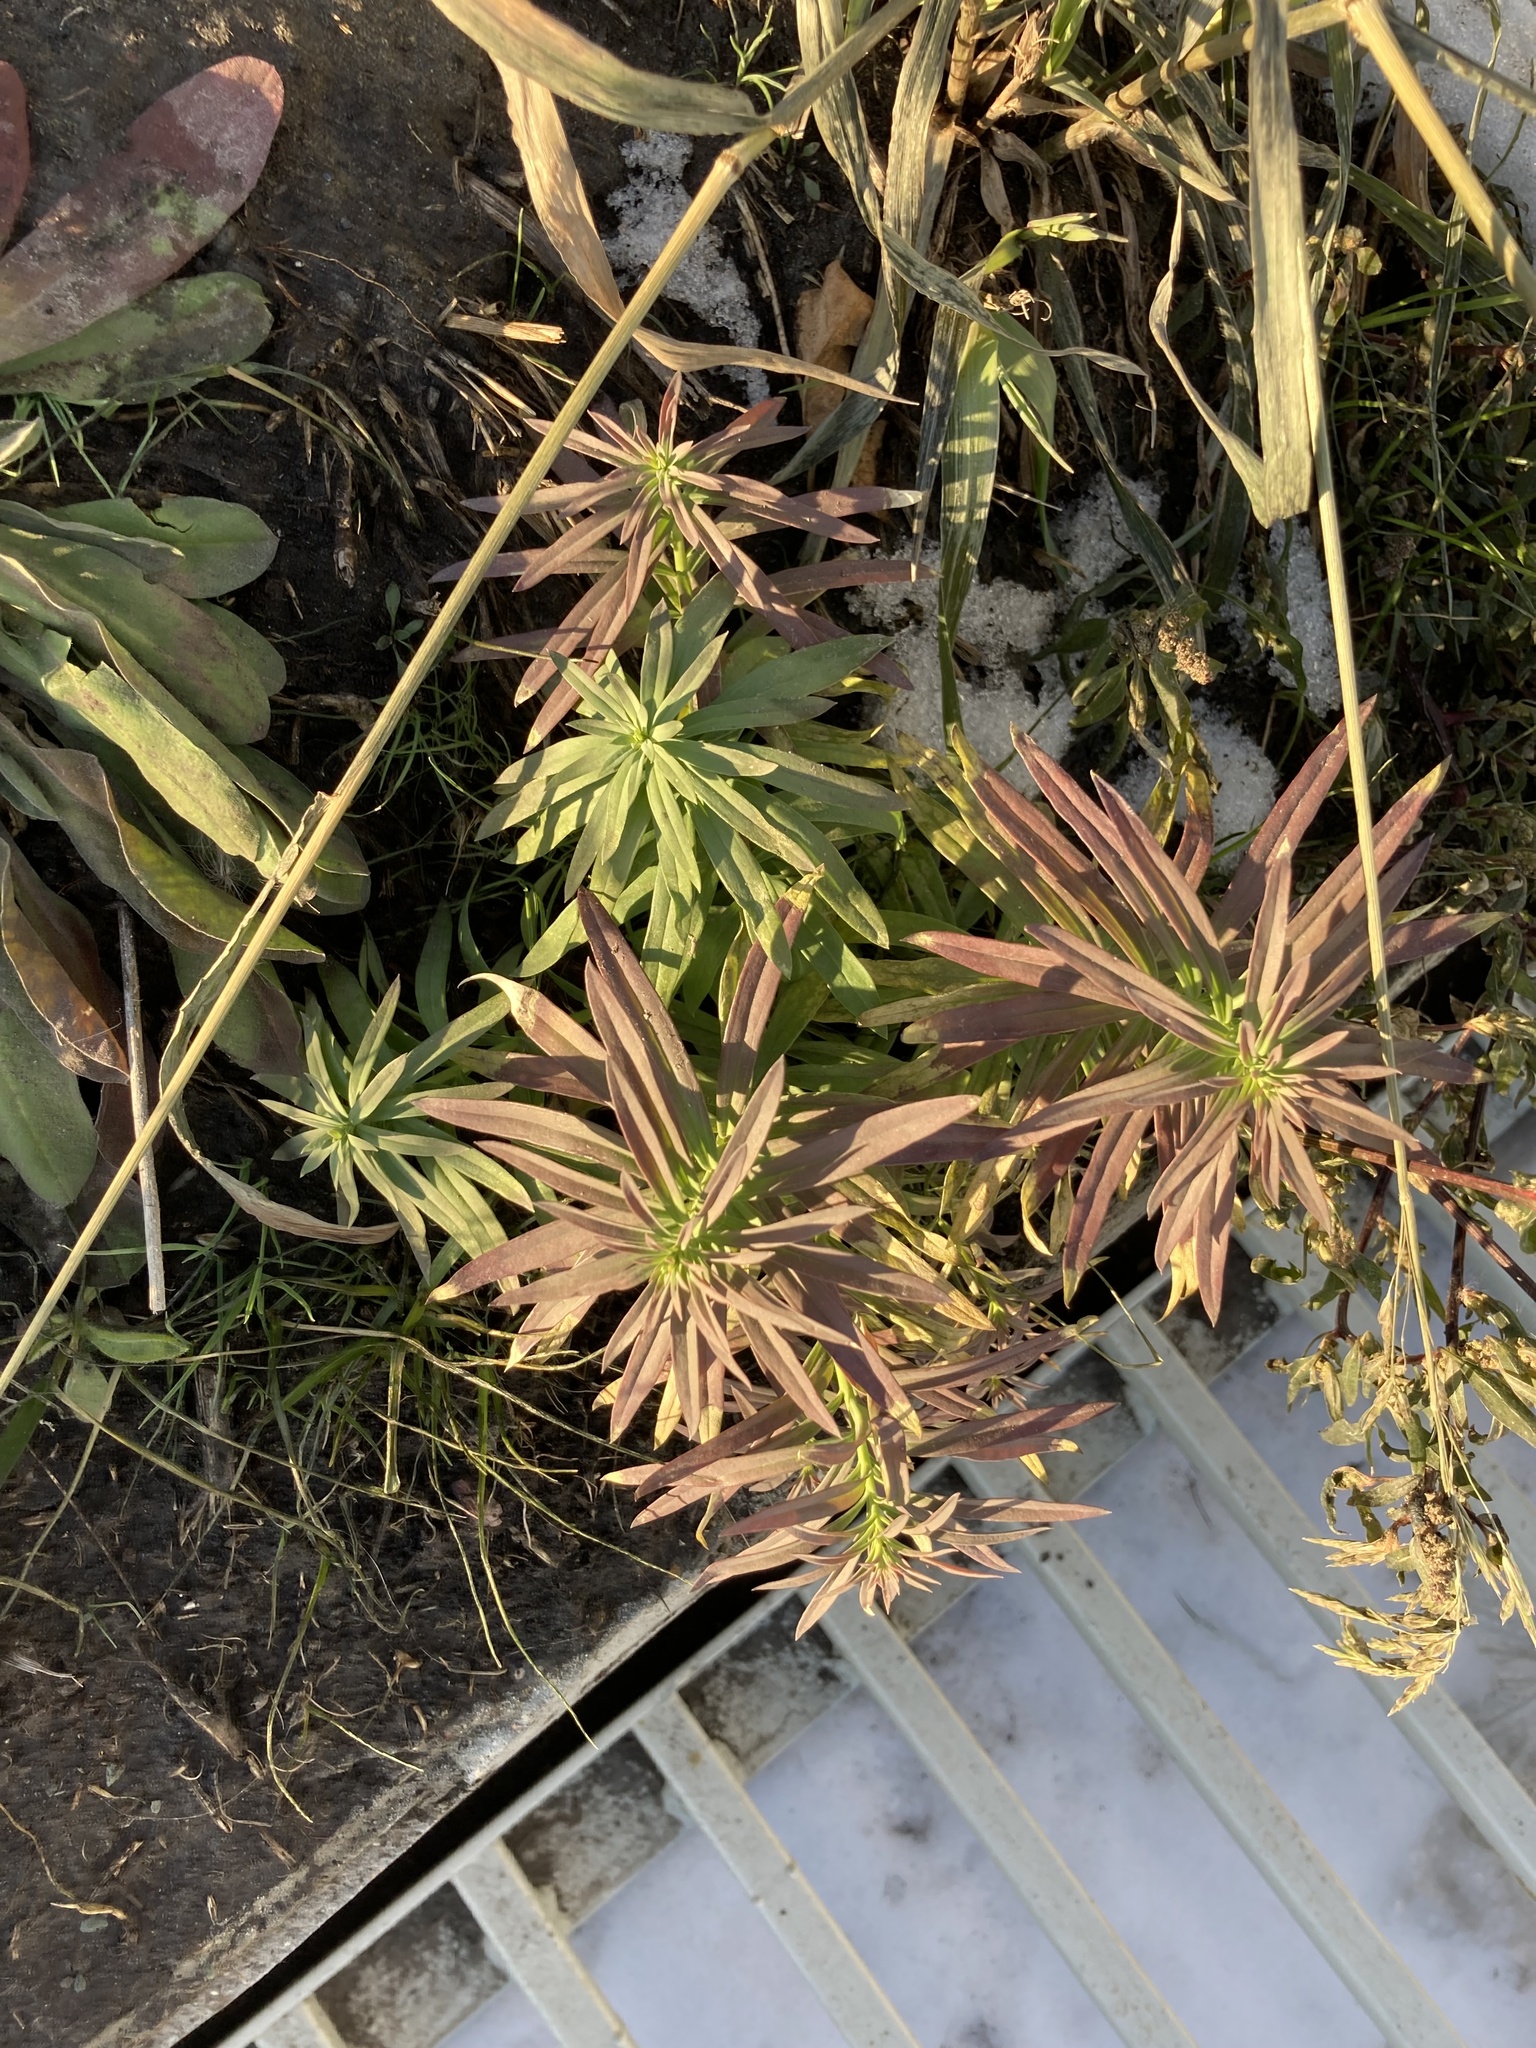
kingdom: Plantae
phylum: Tracheophyta
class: Magnoliopsida
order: Lamiales
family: Plantaginaceae
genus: Linaria
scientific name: Linaria vulgaris
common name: Butter and eggs
